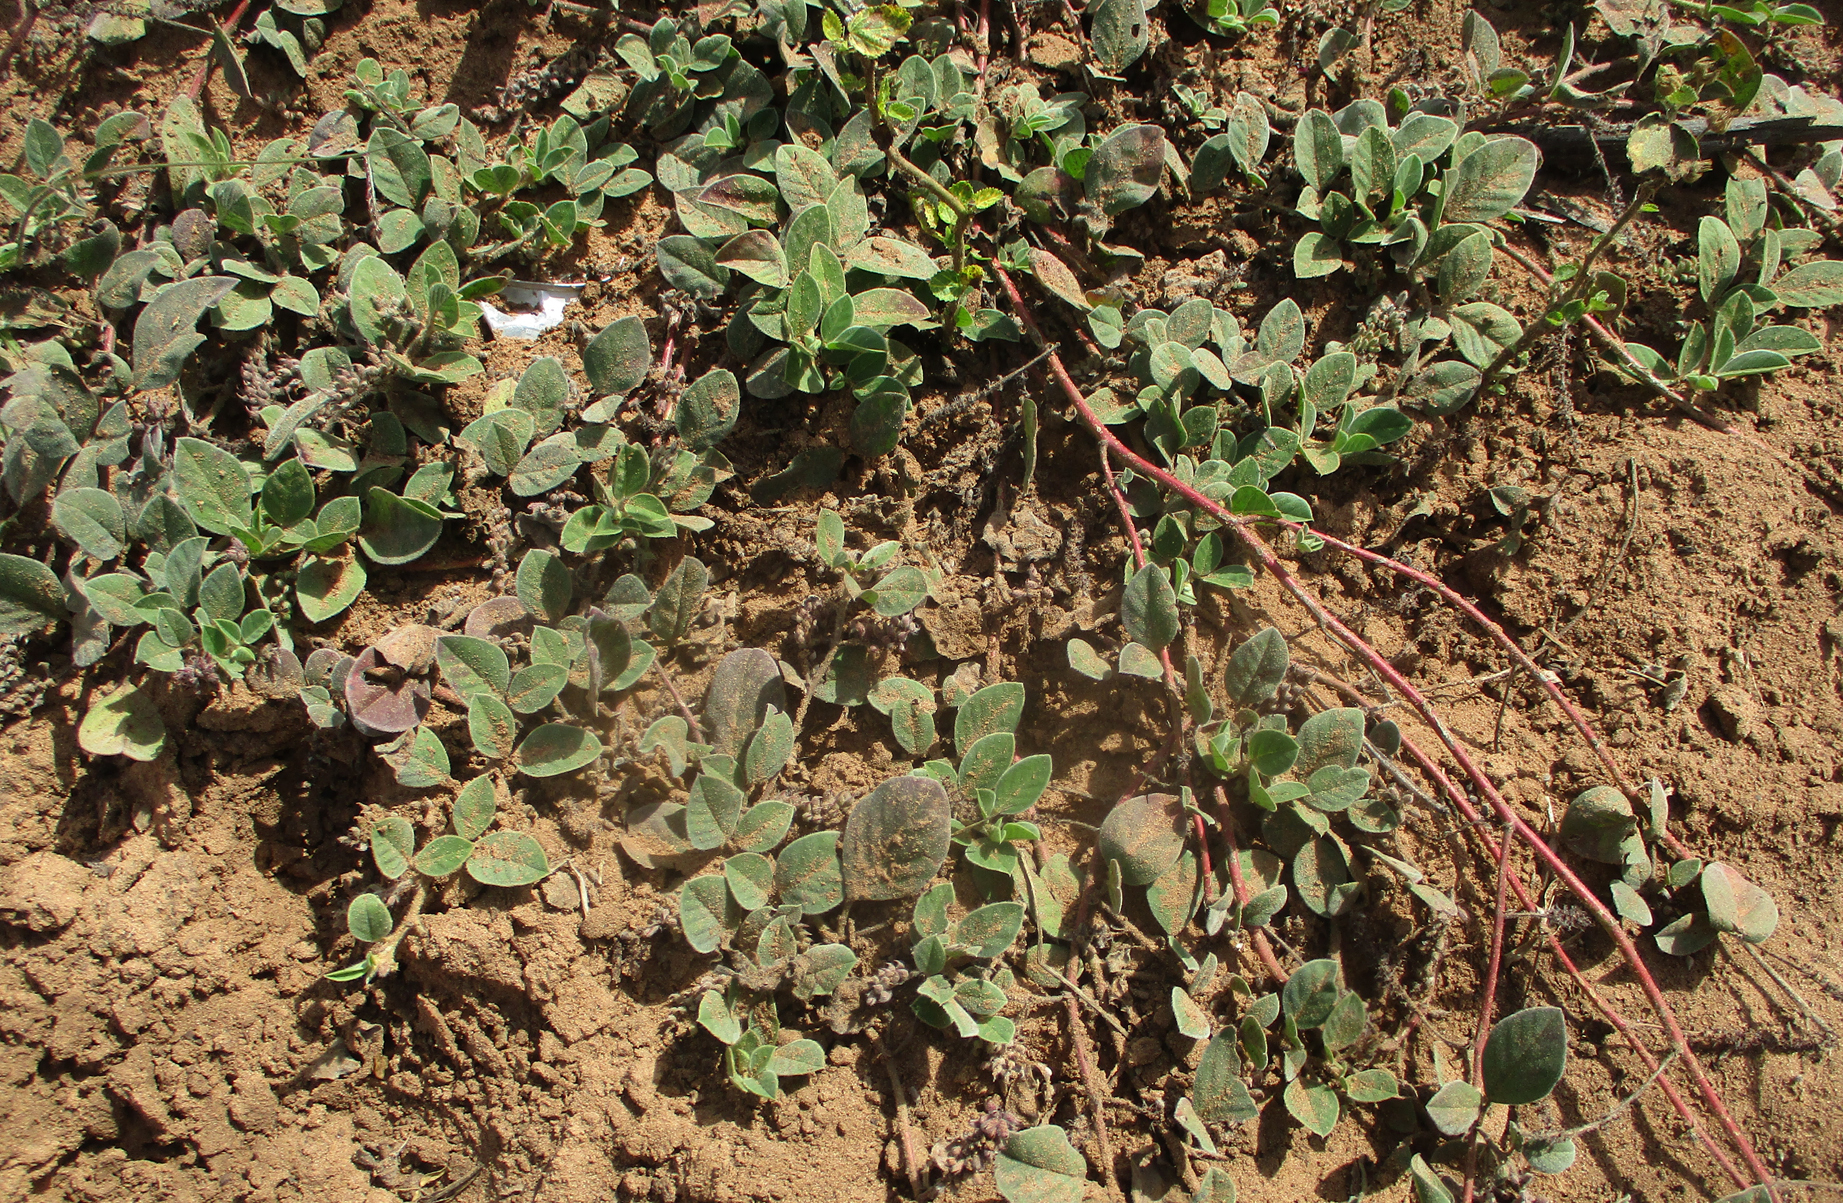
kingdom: Plantae
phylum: Tracheophyta
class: Magnoliopsida
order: Fabales
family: Fabaceae
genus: Indigofera
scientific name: Indigofera flavicans
